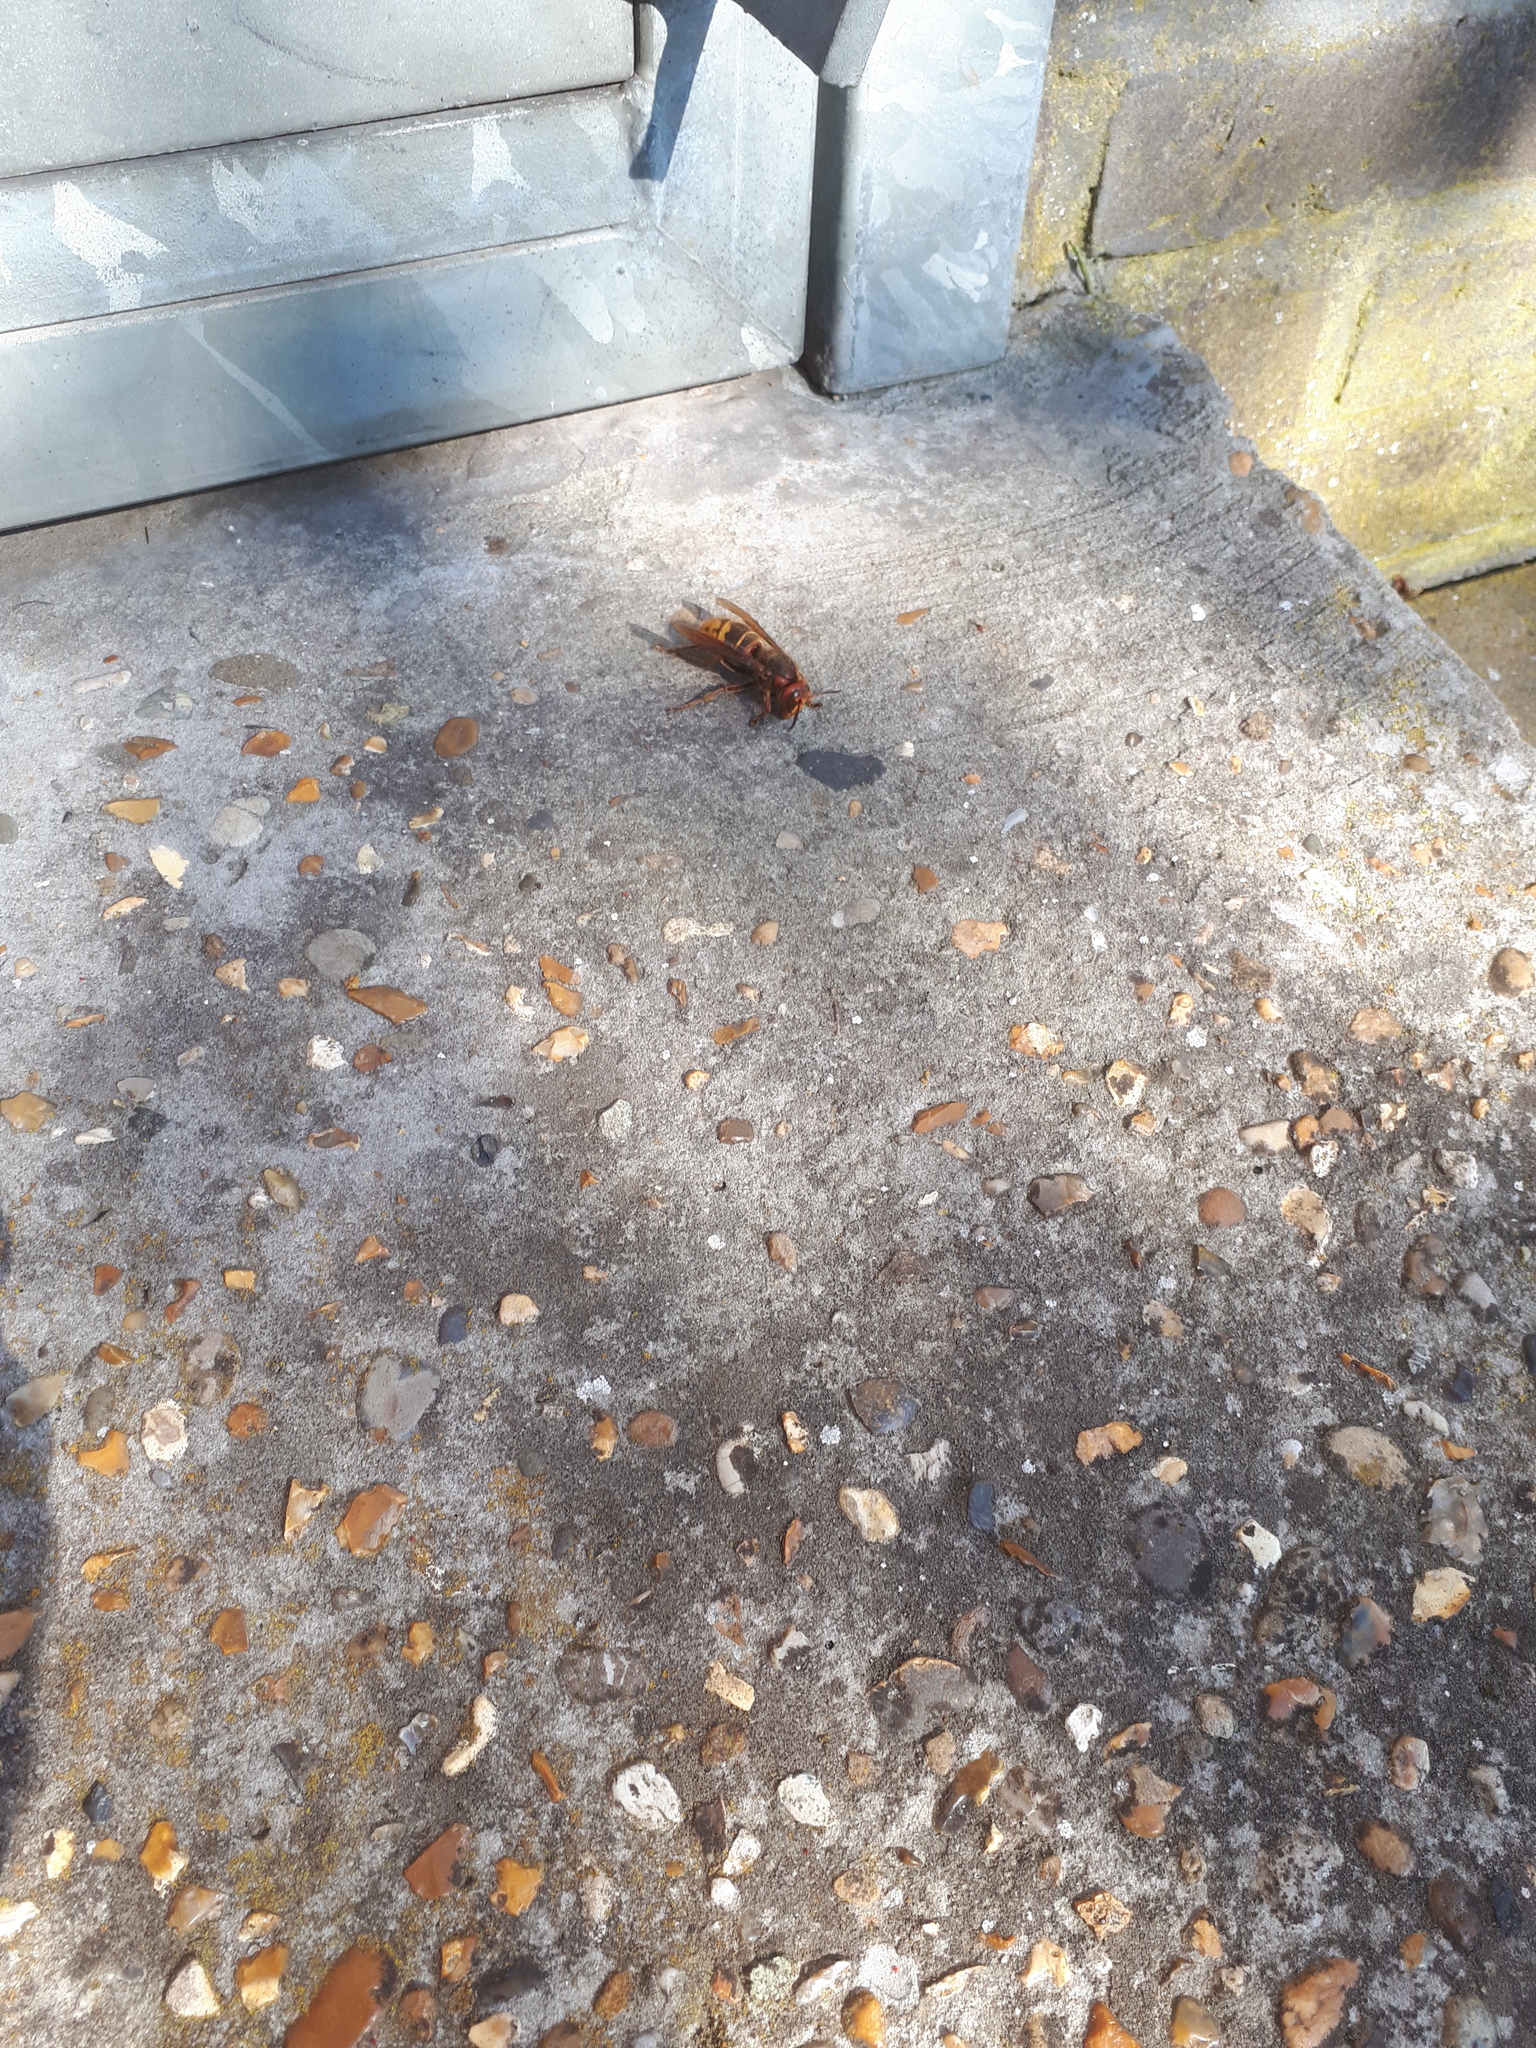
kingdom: Animalia
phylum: Arthropoda
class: Insecta
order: Hymenoptera
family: Vespidae
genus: Vespa
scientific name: Vespa crabro
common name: Hornet
